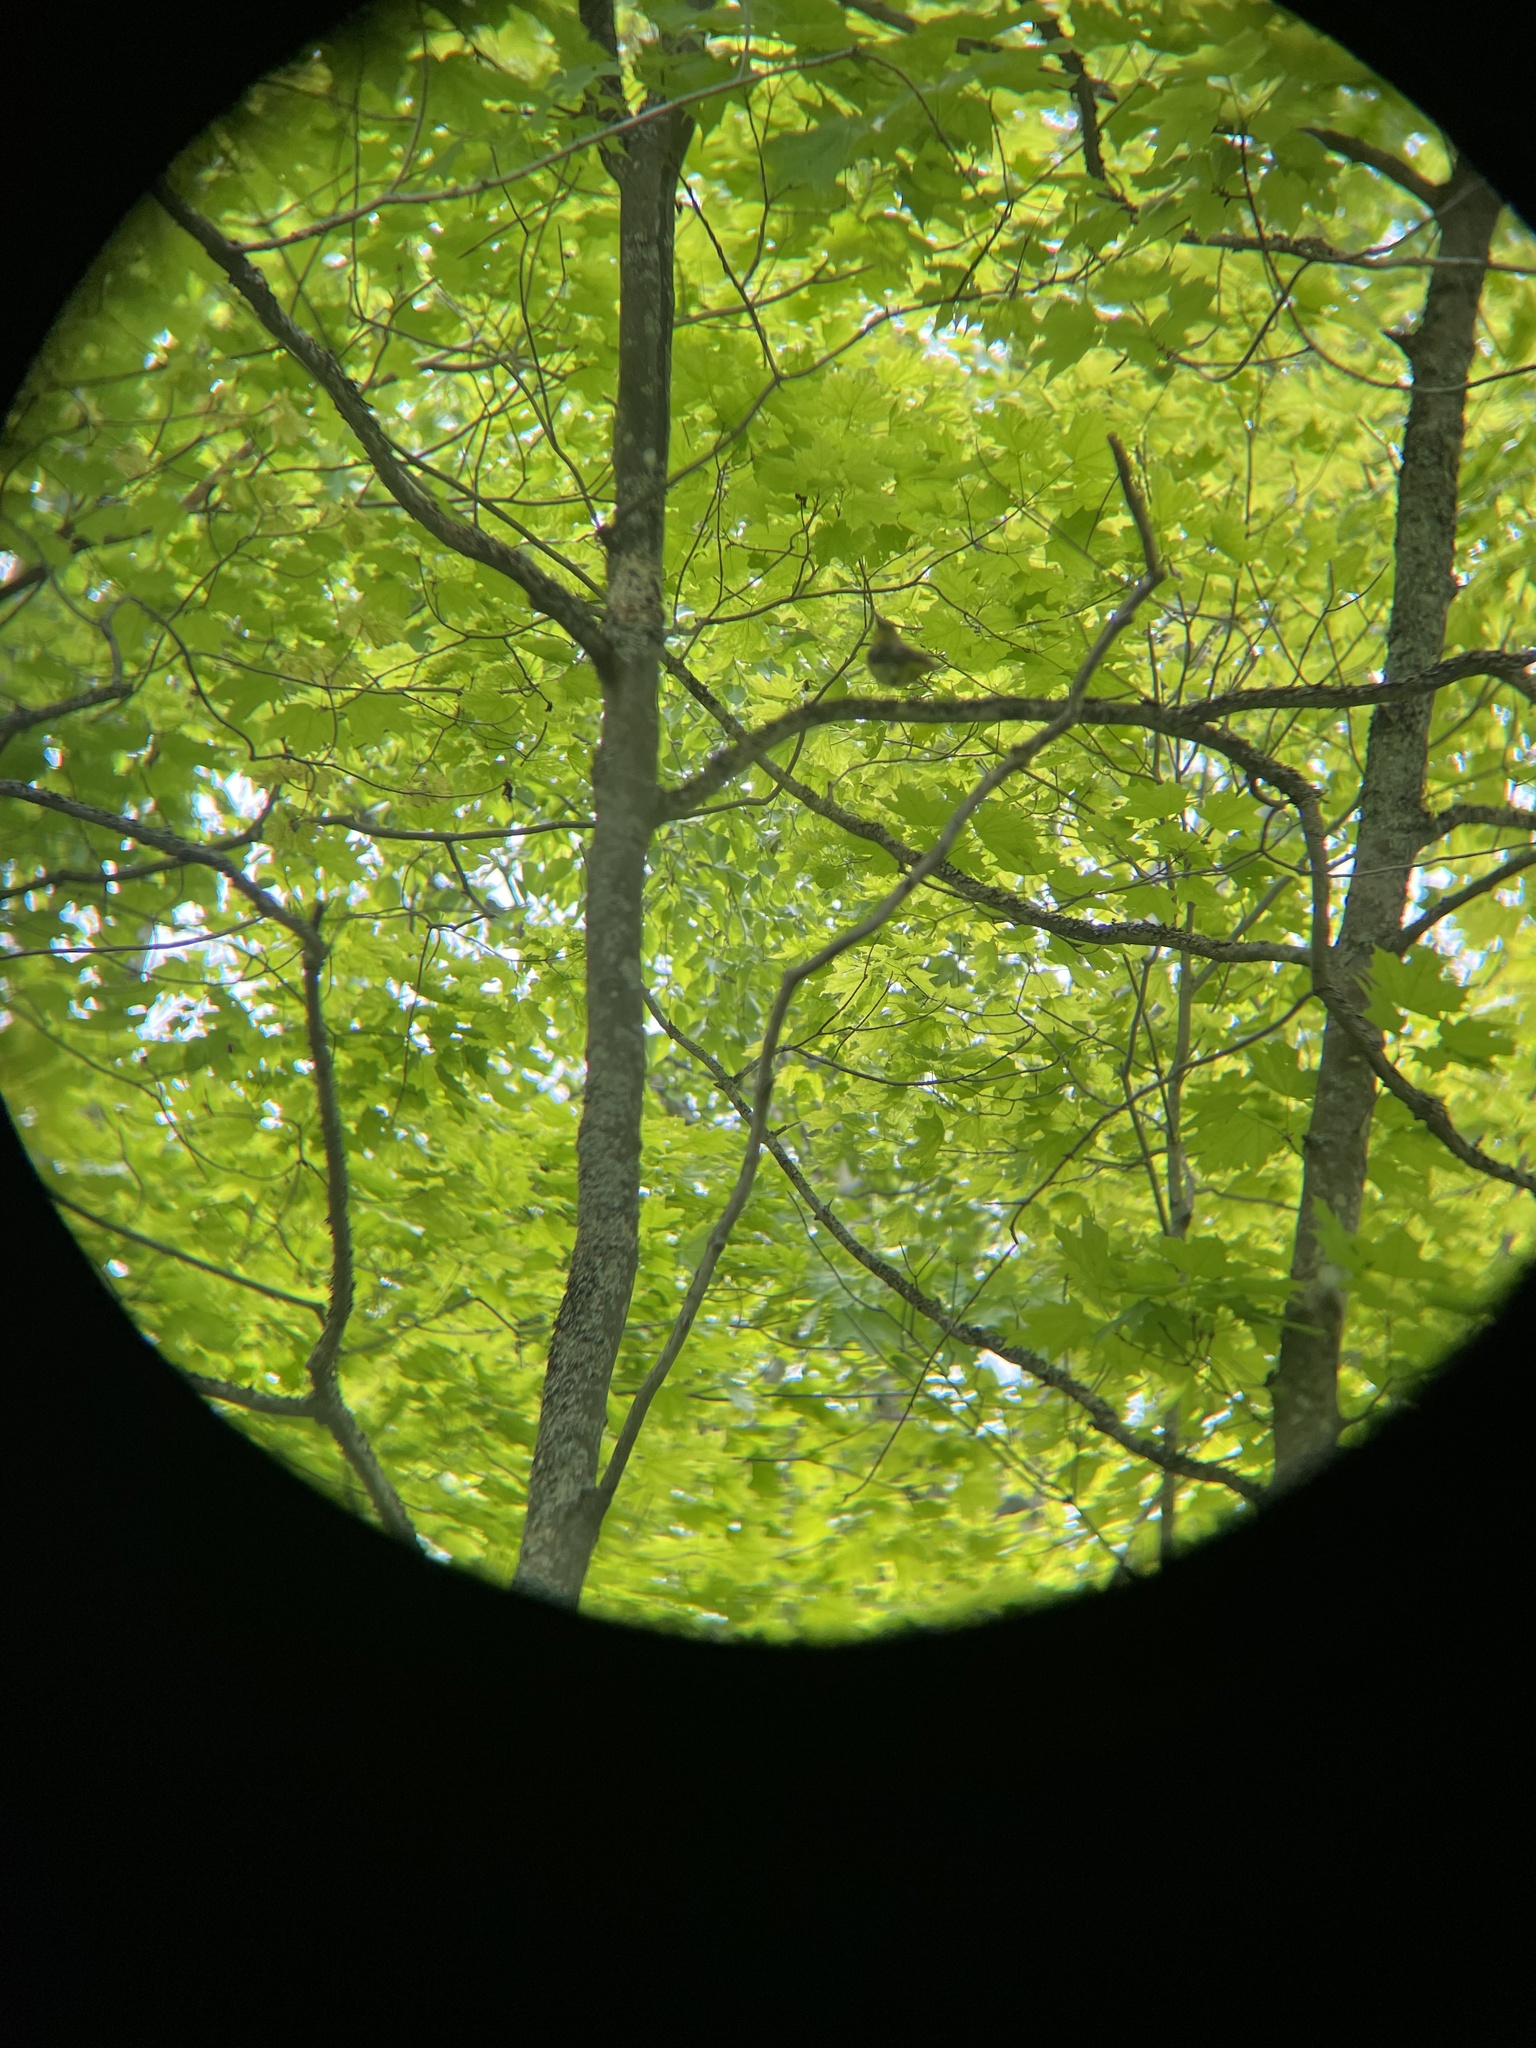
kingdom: Animalia
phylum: Chordata
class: Aves
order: Passeriformes
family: Cardinalidae
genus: Piranga
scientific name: Piranga olivacea
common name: Scarlet tanager
